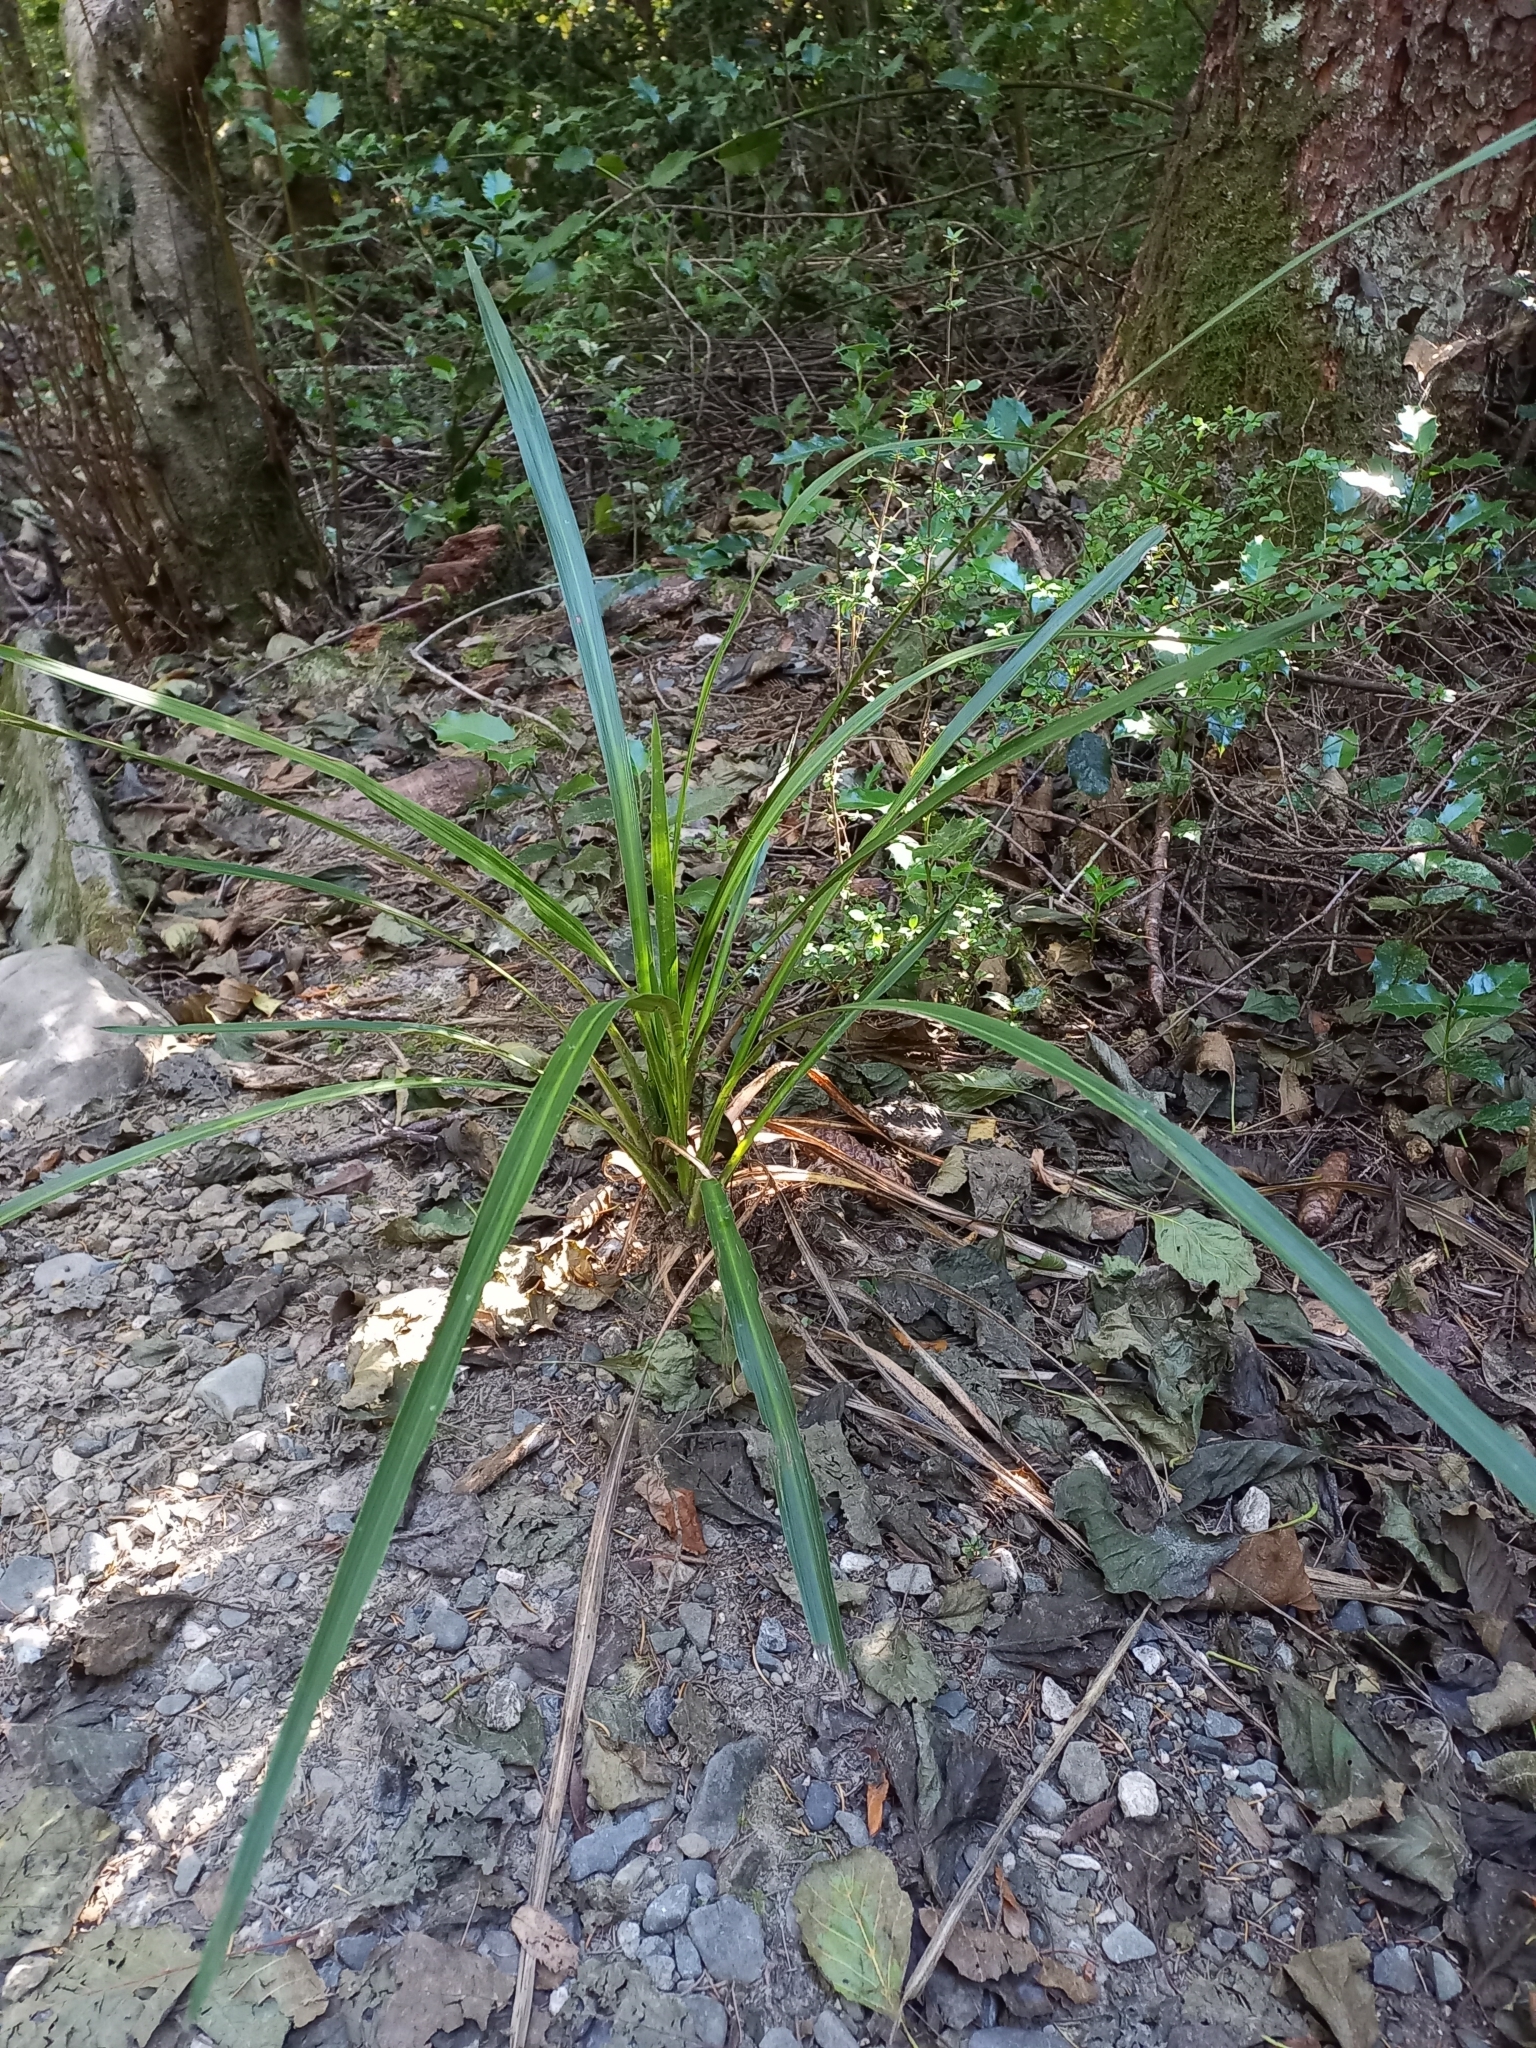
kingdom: Plantae
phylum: Tracheophyta
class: Liliopsida
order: Asparagales
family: Asparagaceae
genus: Cordyline
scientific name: Cordyline australis
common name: Cabbage-palm
